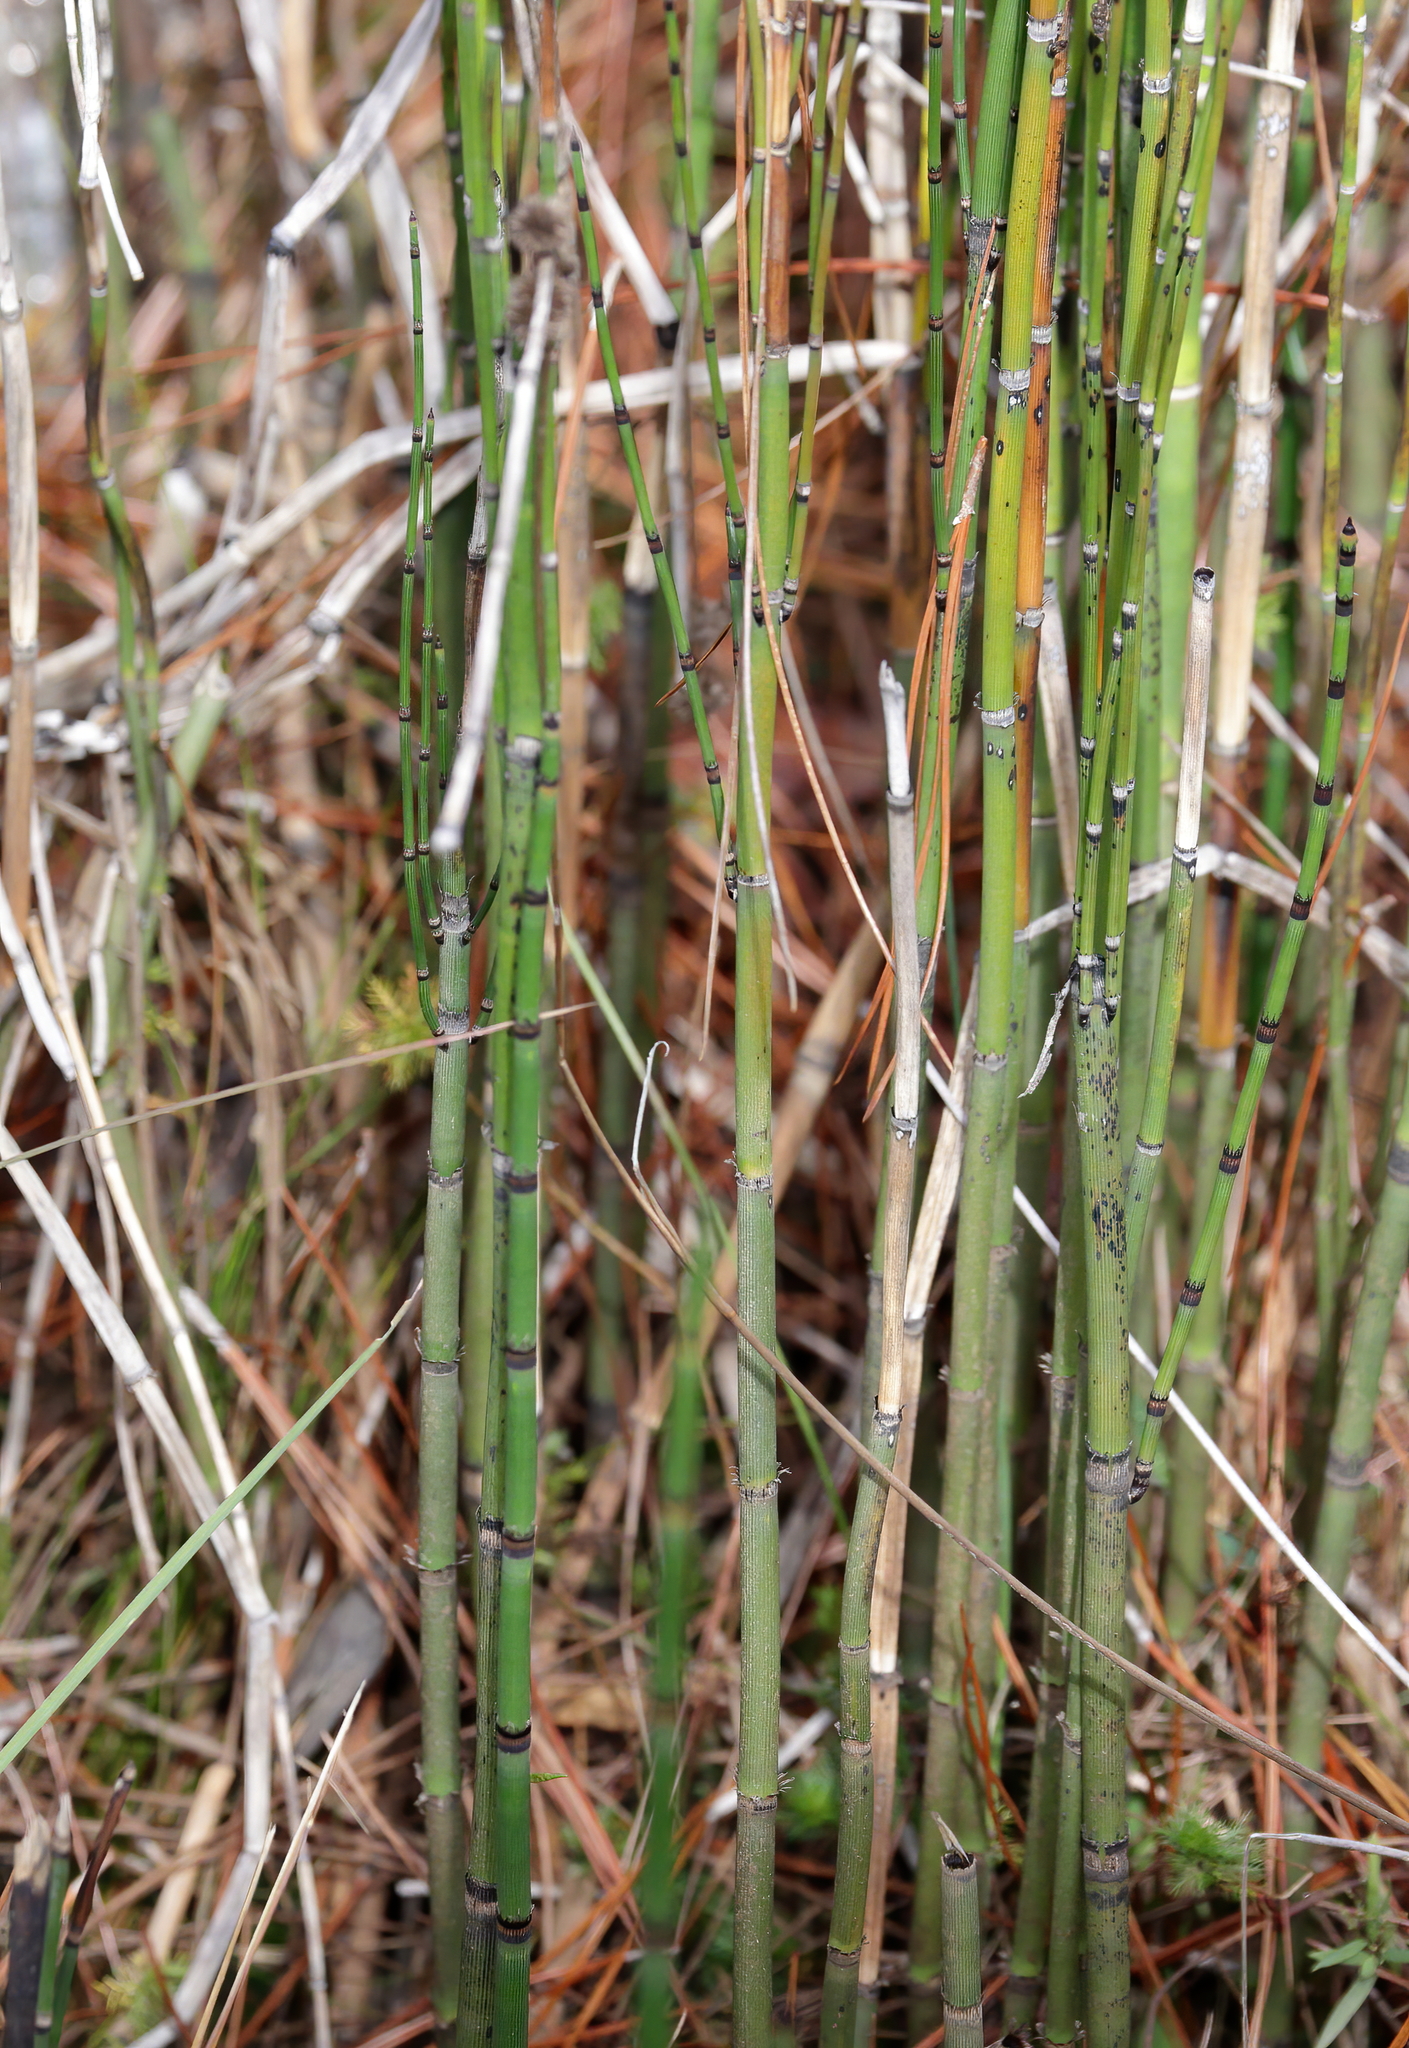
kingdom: Plantae
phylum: Tracheophyta
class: Polypodiopsida
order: Equisetales
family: Equisetaceae
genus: Equisetum
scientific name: Equisetum hyemale
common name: Rough horsetail
